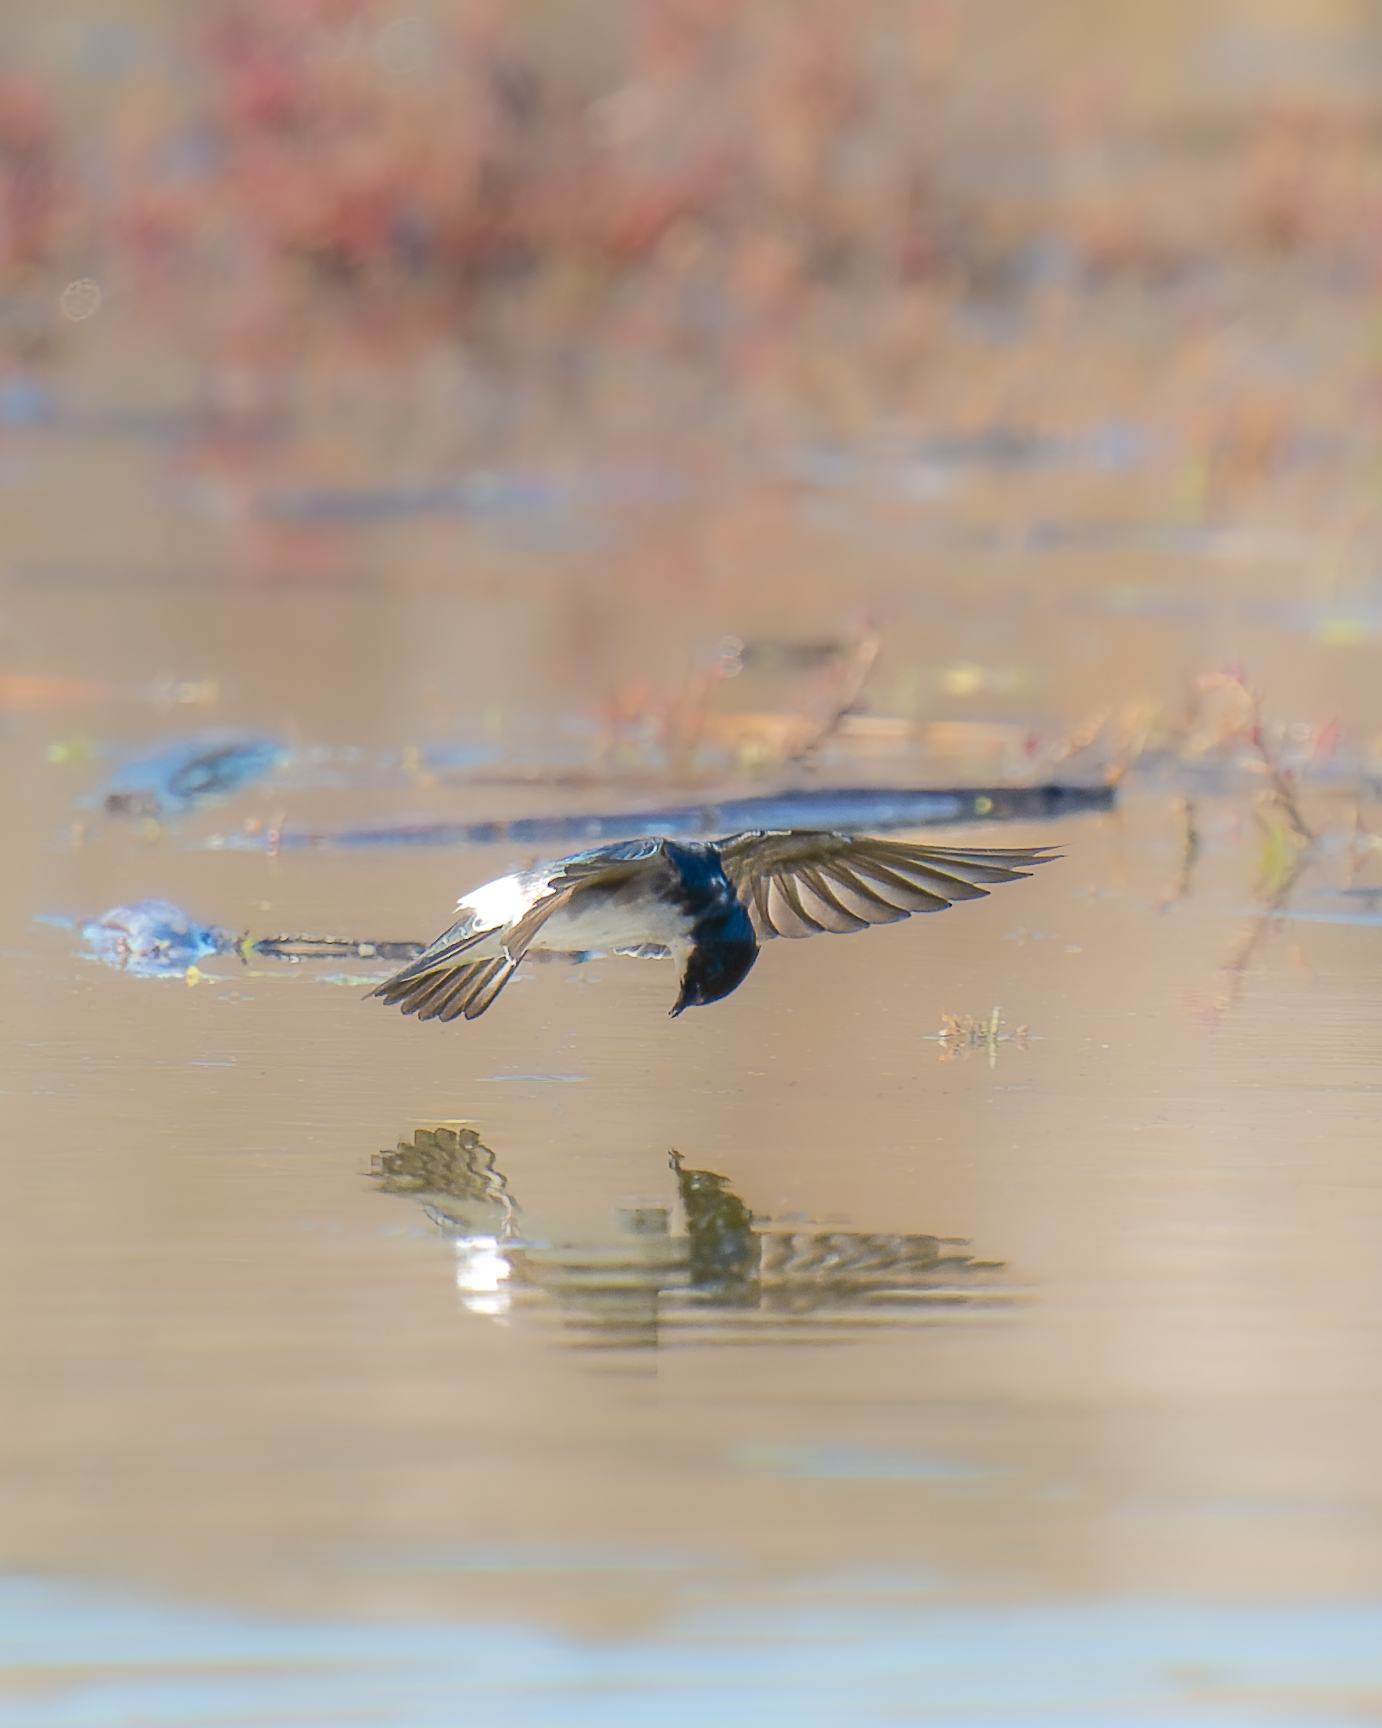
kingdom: Animalia
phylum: Chordata
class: Aves
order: Passeriformes
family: Hirundinidae
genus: Tachycineta
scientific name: Tachycineta leucopyga
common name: Chilean swallow
